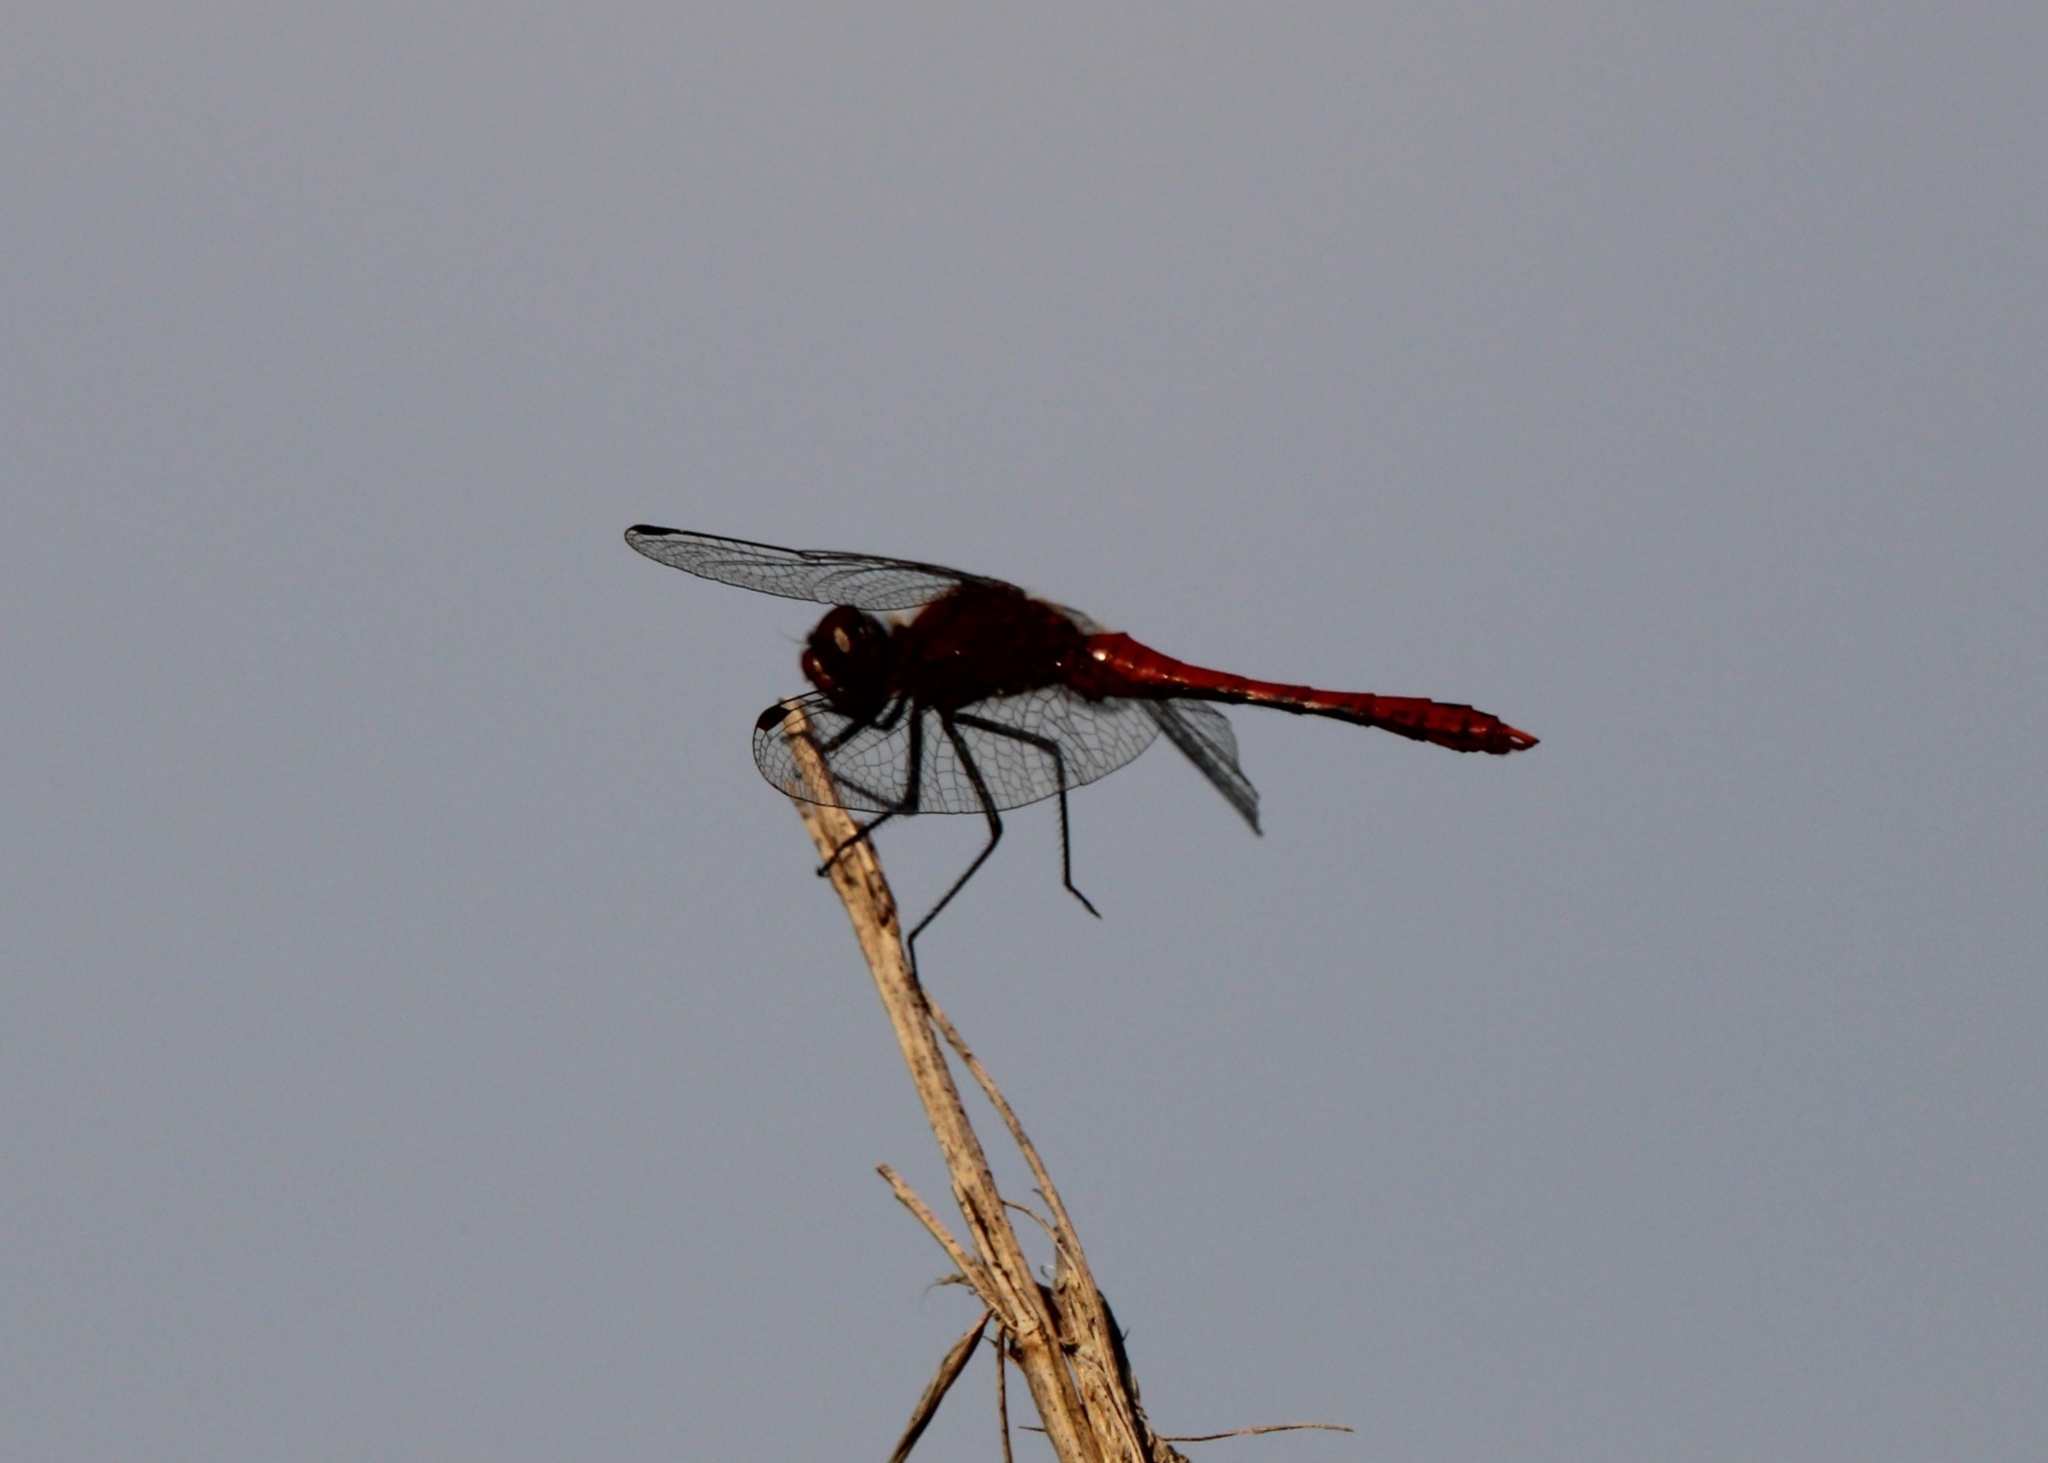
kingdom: Animalia
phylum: Arthropoda
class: Insecta
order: Odonata
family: Libellulidae
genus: Sympetrum
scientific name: Sympetrum sanguineum
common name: Ruddy darter
